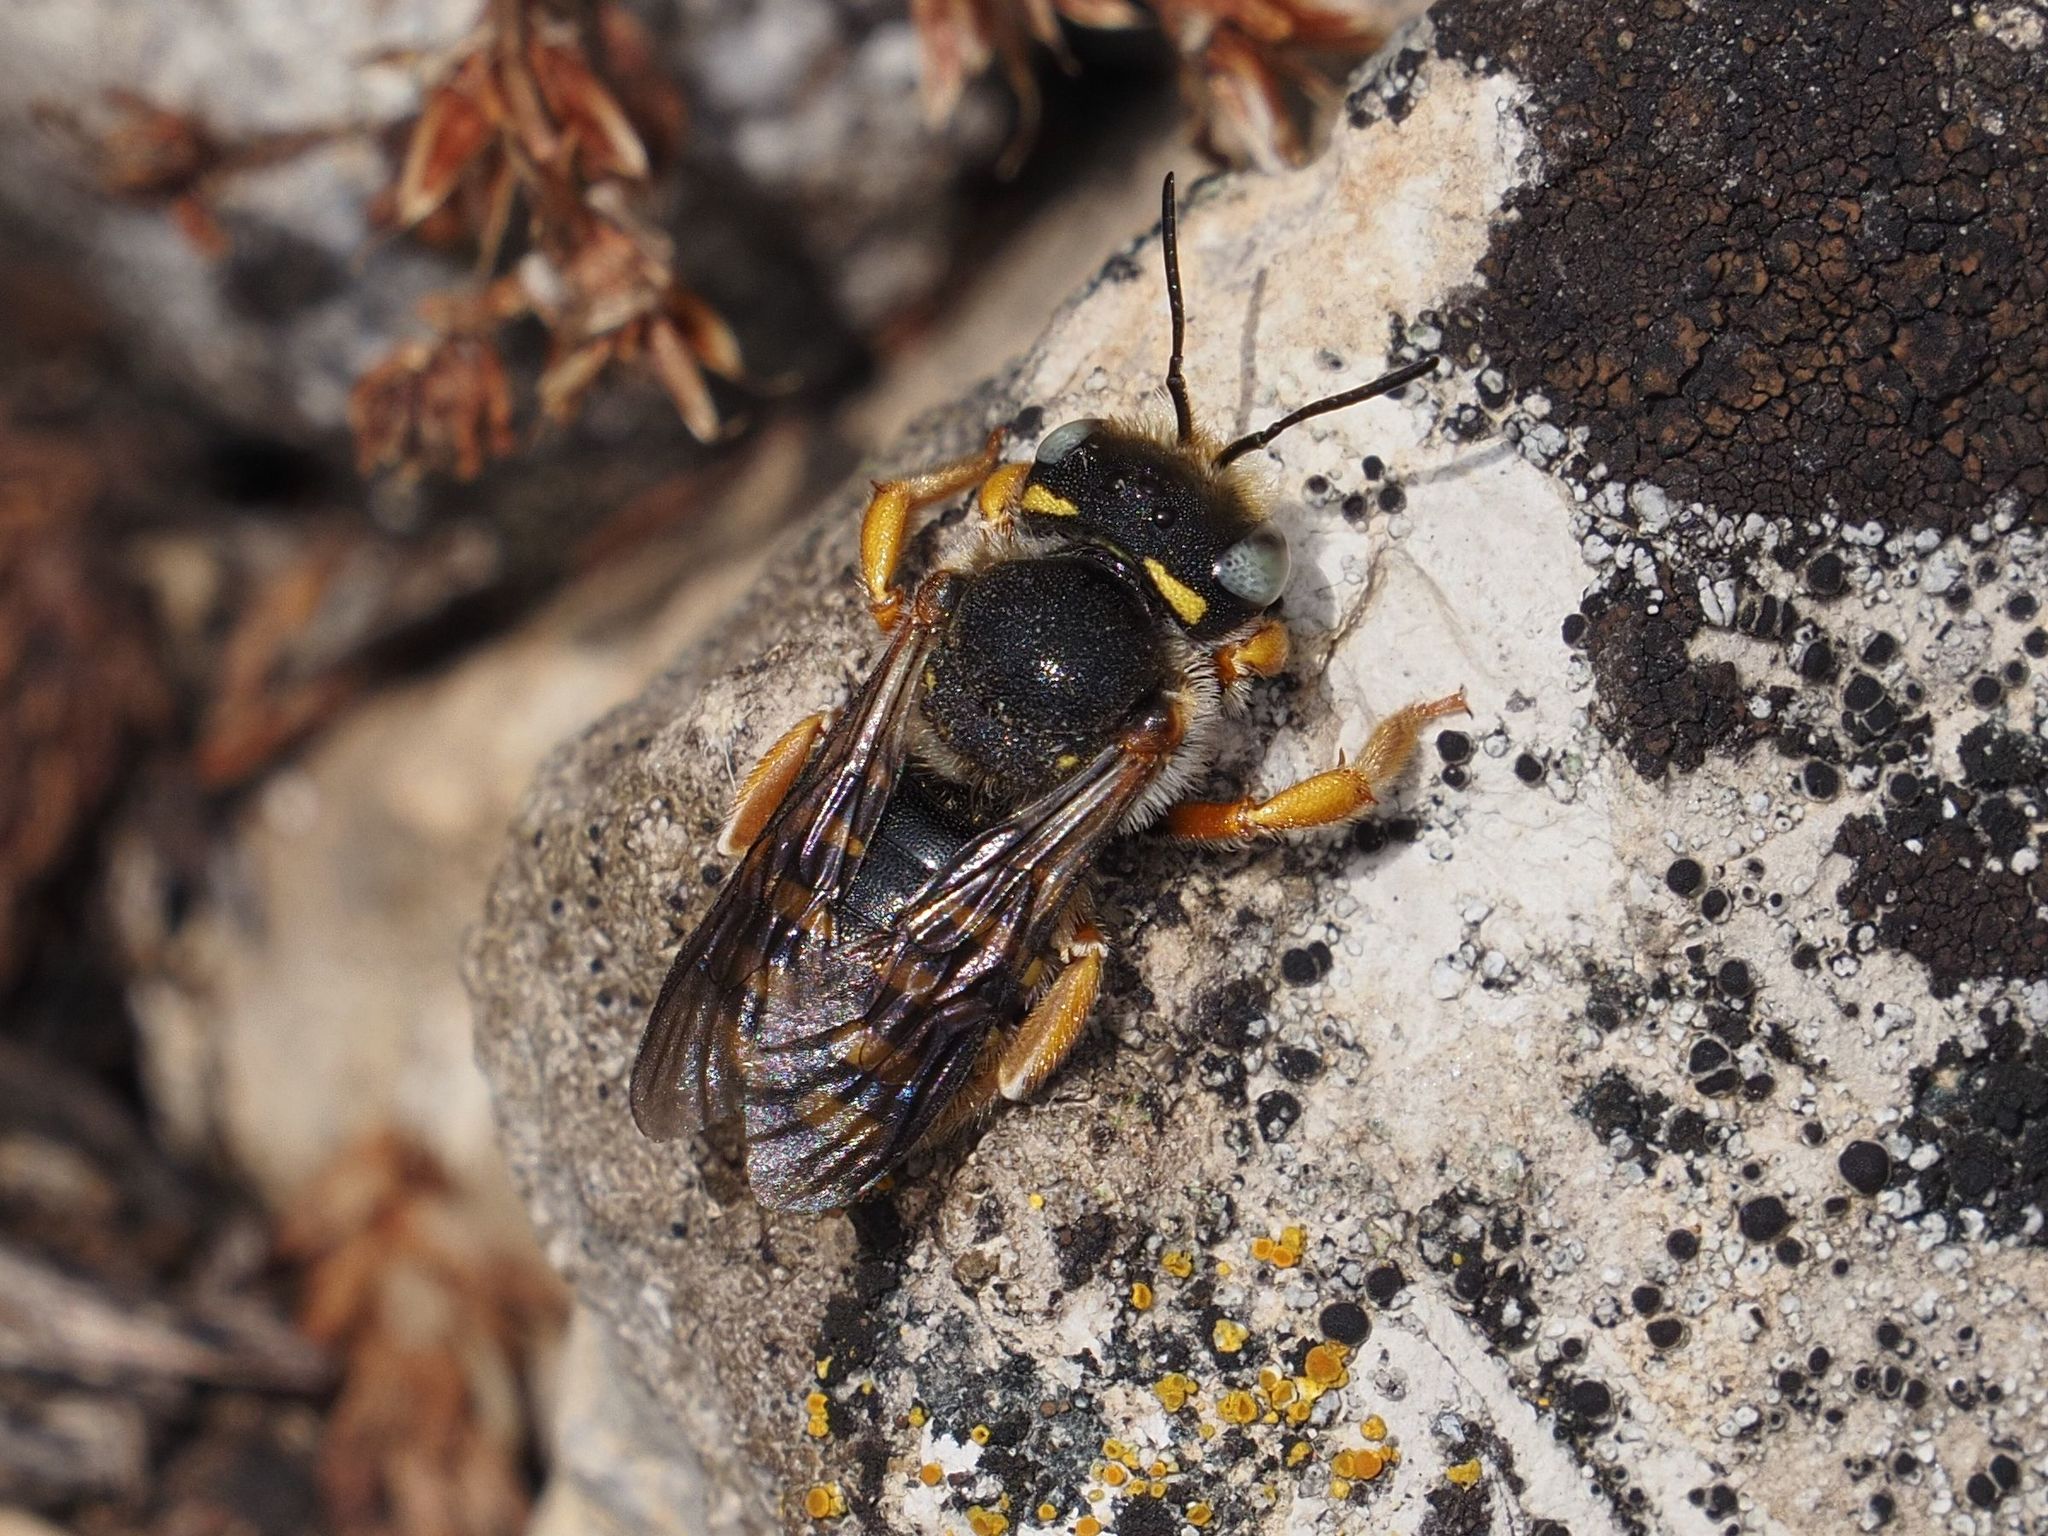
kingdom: Animalia
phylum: Arthropoda
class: Insecta
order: Hymenoptera
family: Megachilidae
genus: Anthidium
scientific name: Anthidium oblongatum
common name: Oblong wool carder bee
